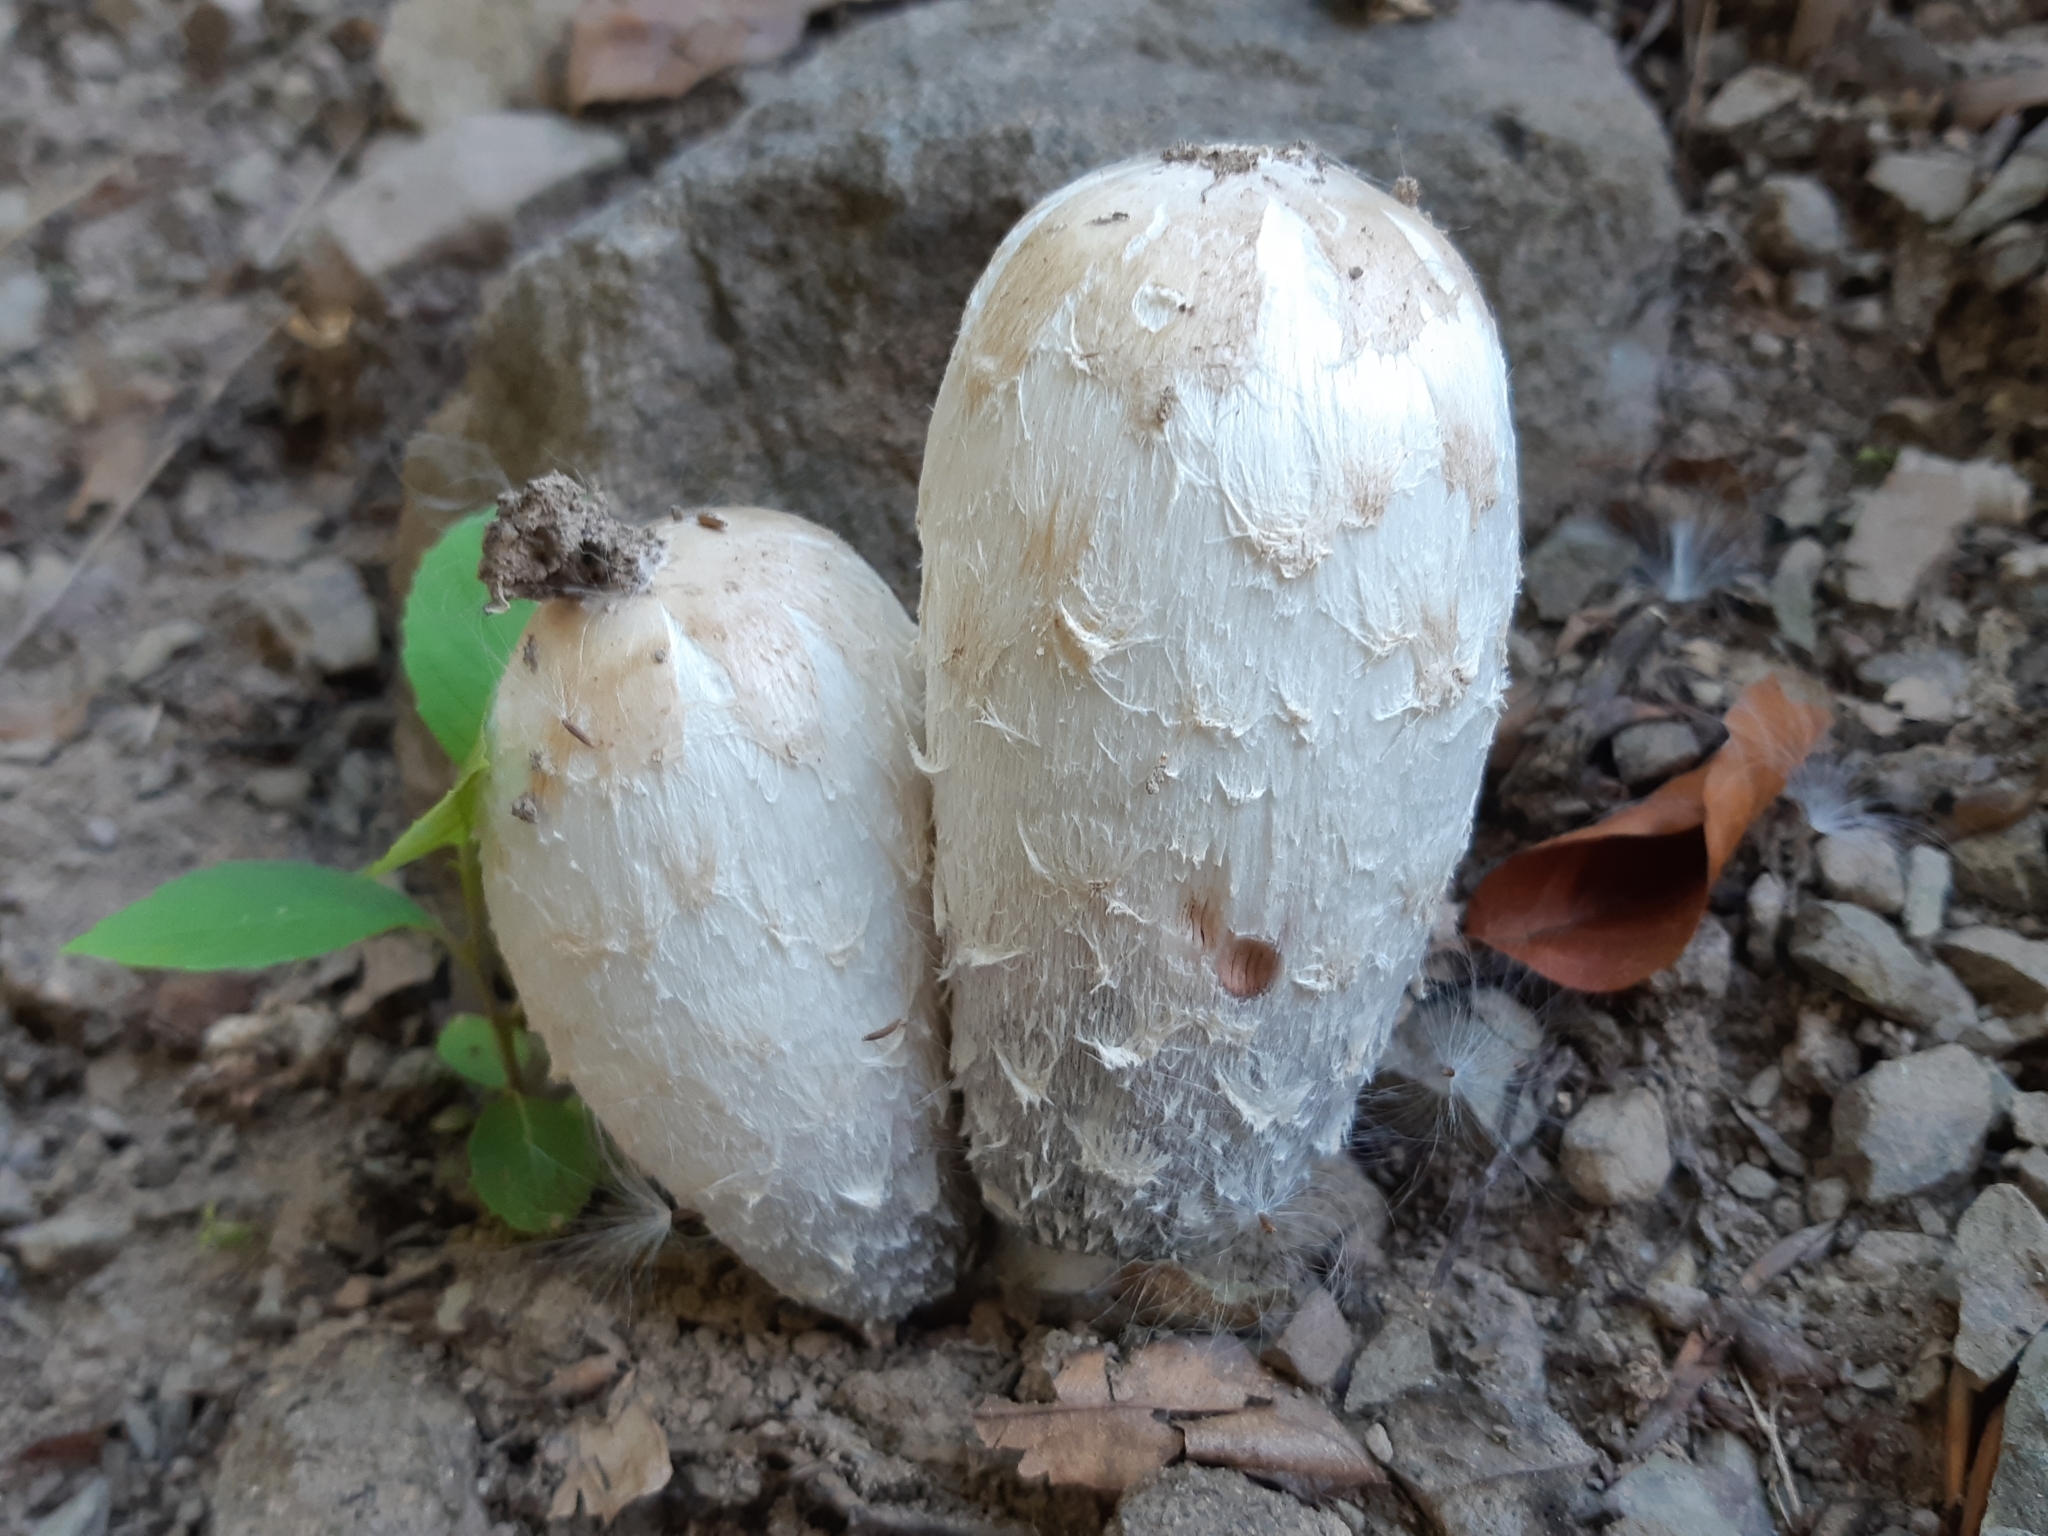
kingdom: Fungi
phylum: Basidiomycota
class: Agaricomycetes
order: Agaricales
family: Agaricaceae
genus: Coprinus
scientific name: Coprinus comatus
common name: Lawyer's wig
